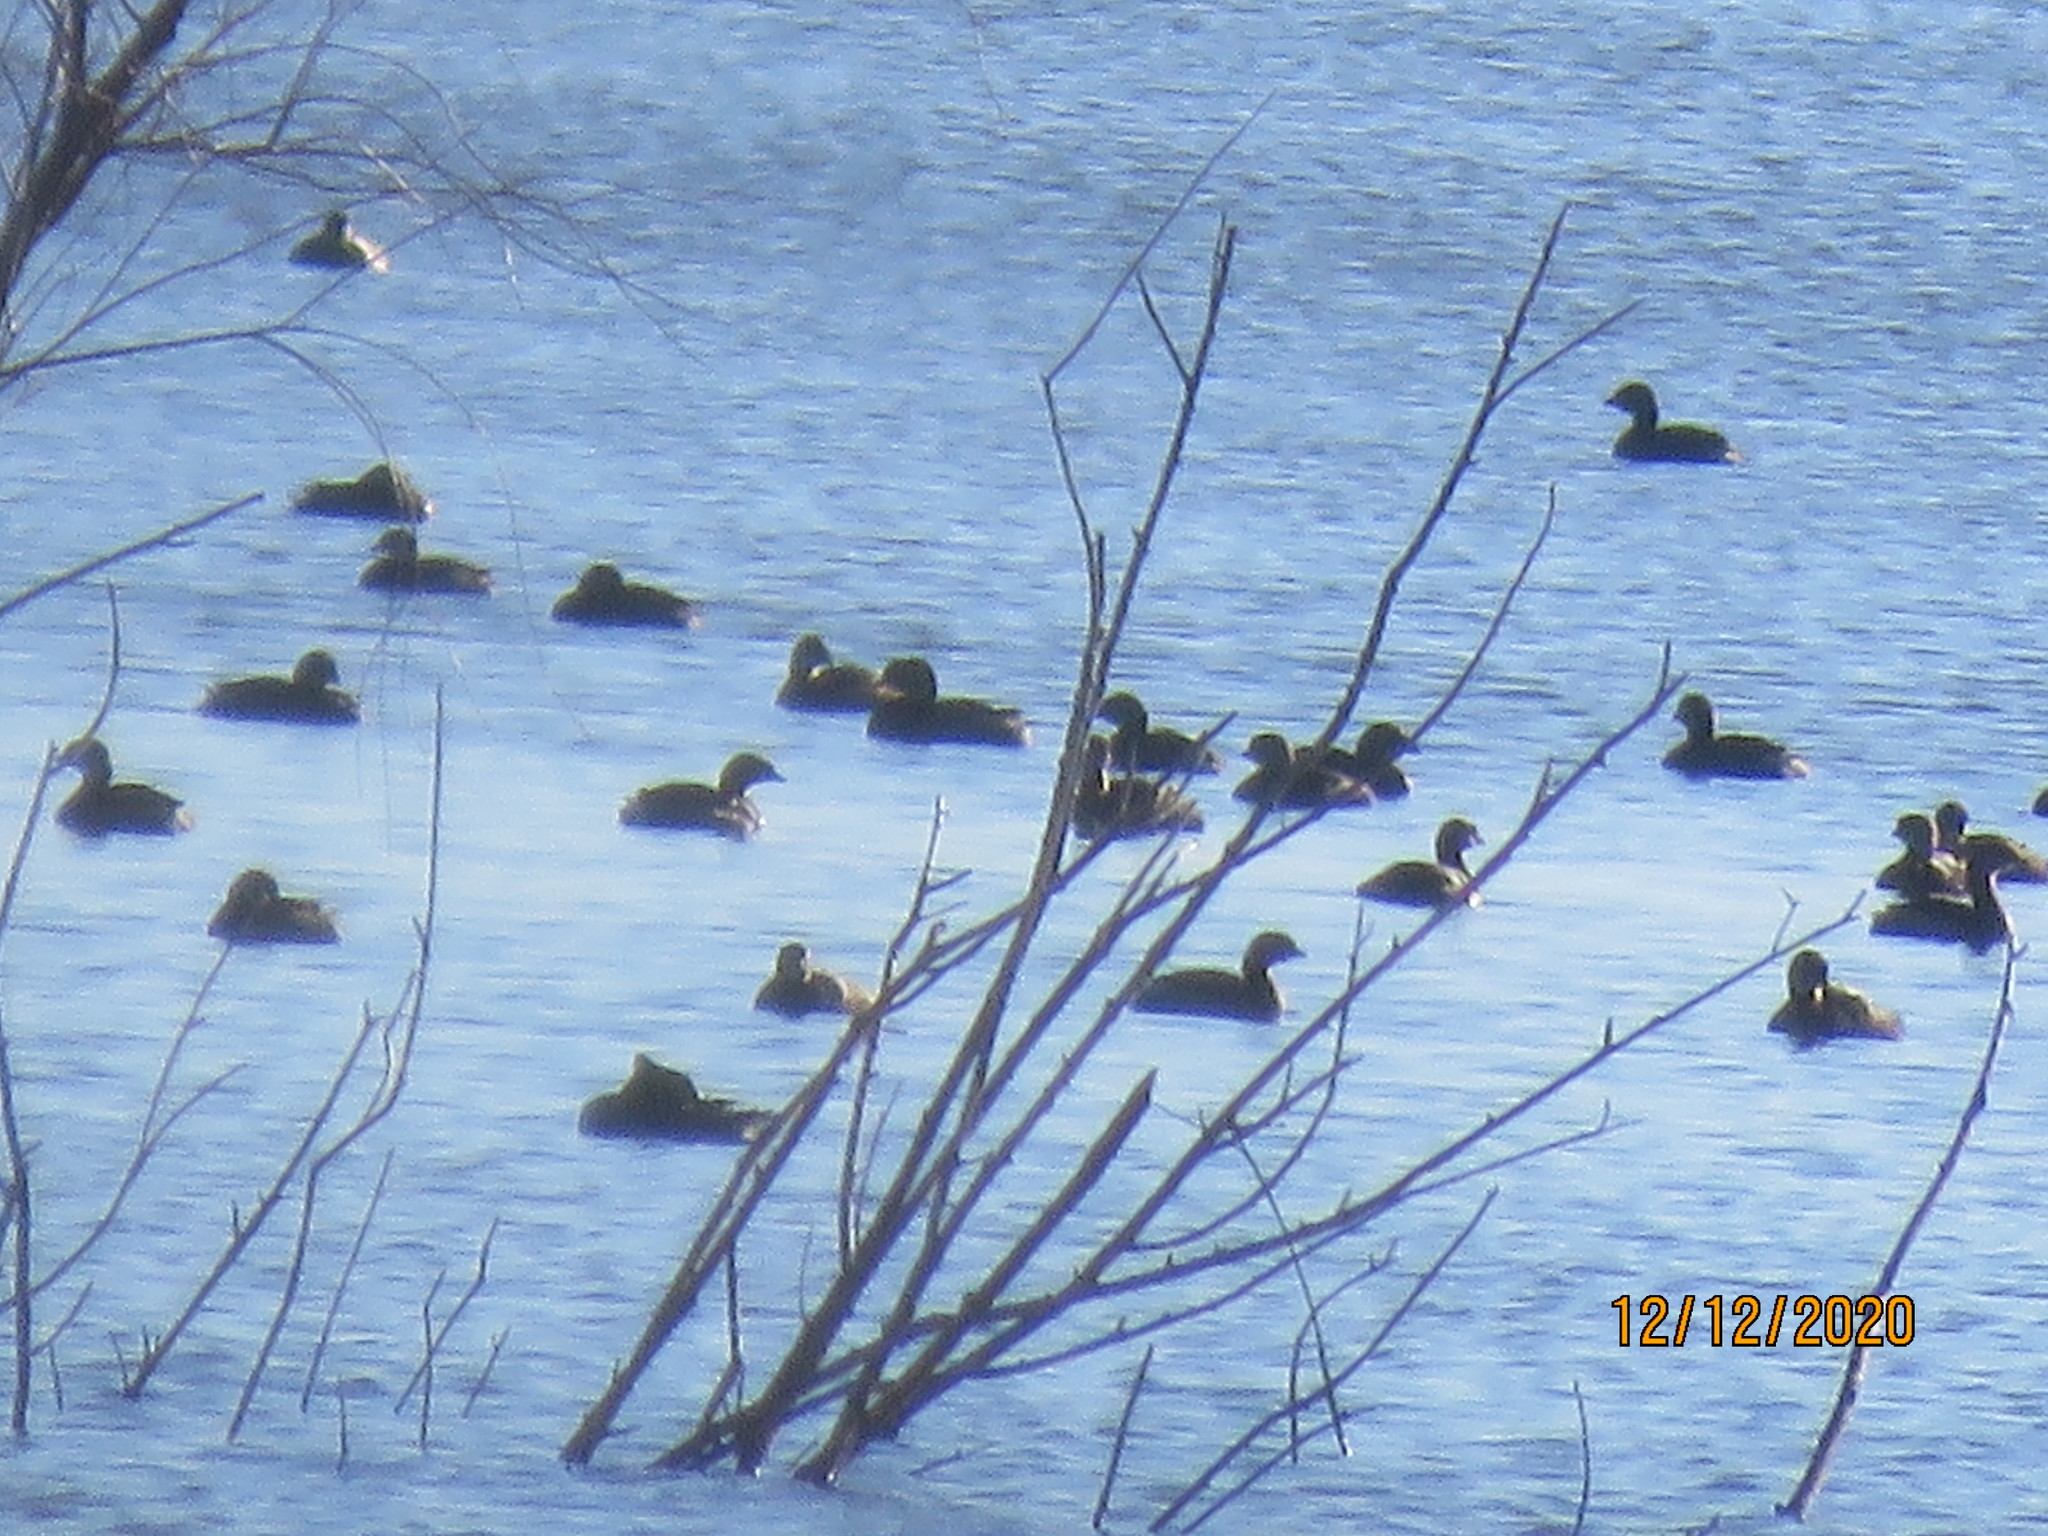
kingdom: Animalia
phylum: Chordata
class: Aves
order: Podicipediformes
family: Podicipedidae
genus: Podilymbus
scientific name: Podilymbus podiceps
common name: Pied-billed grebe
